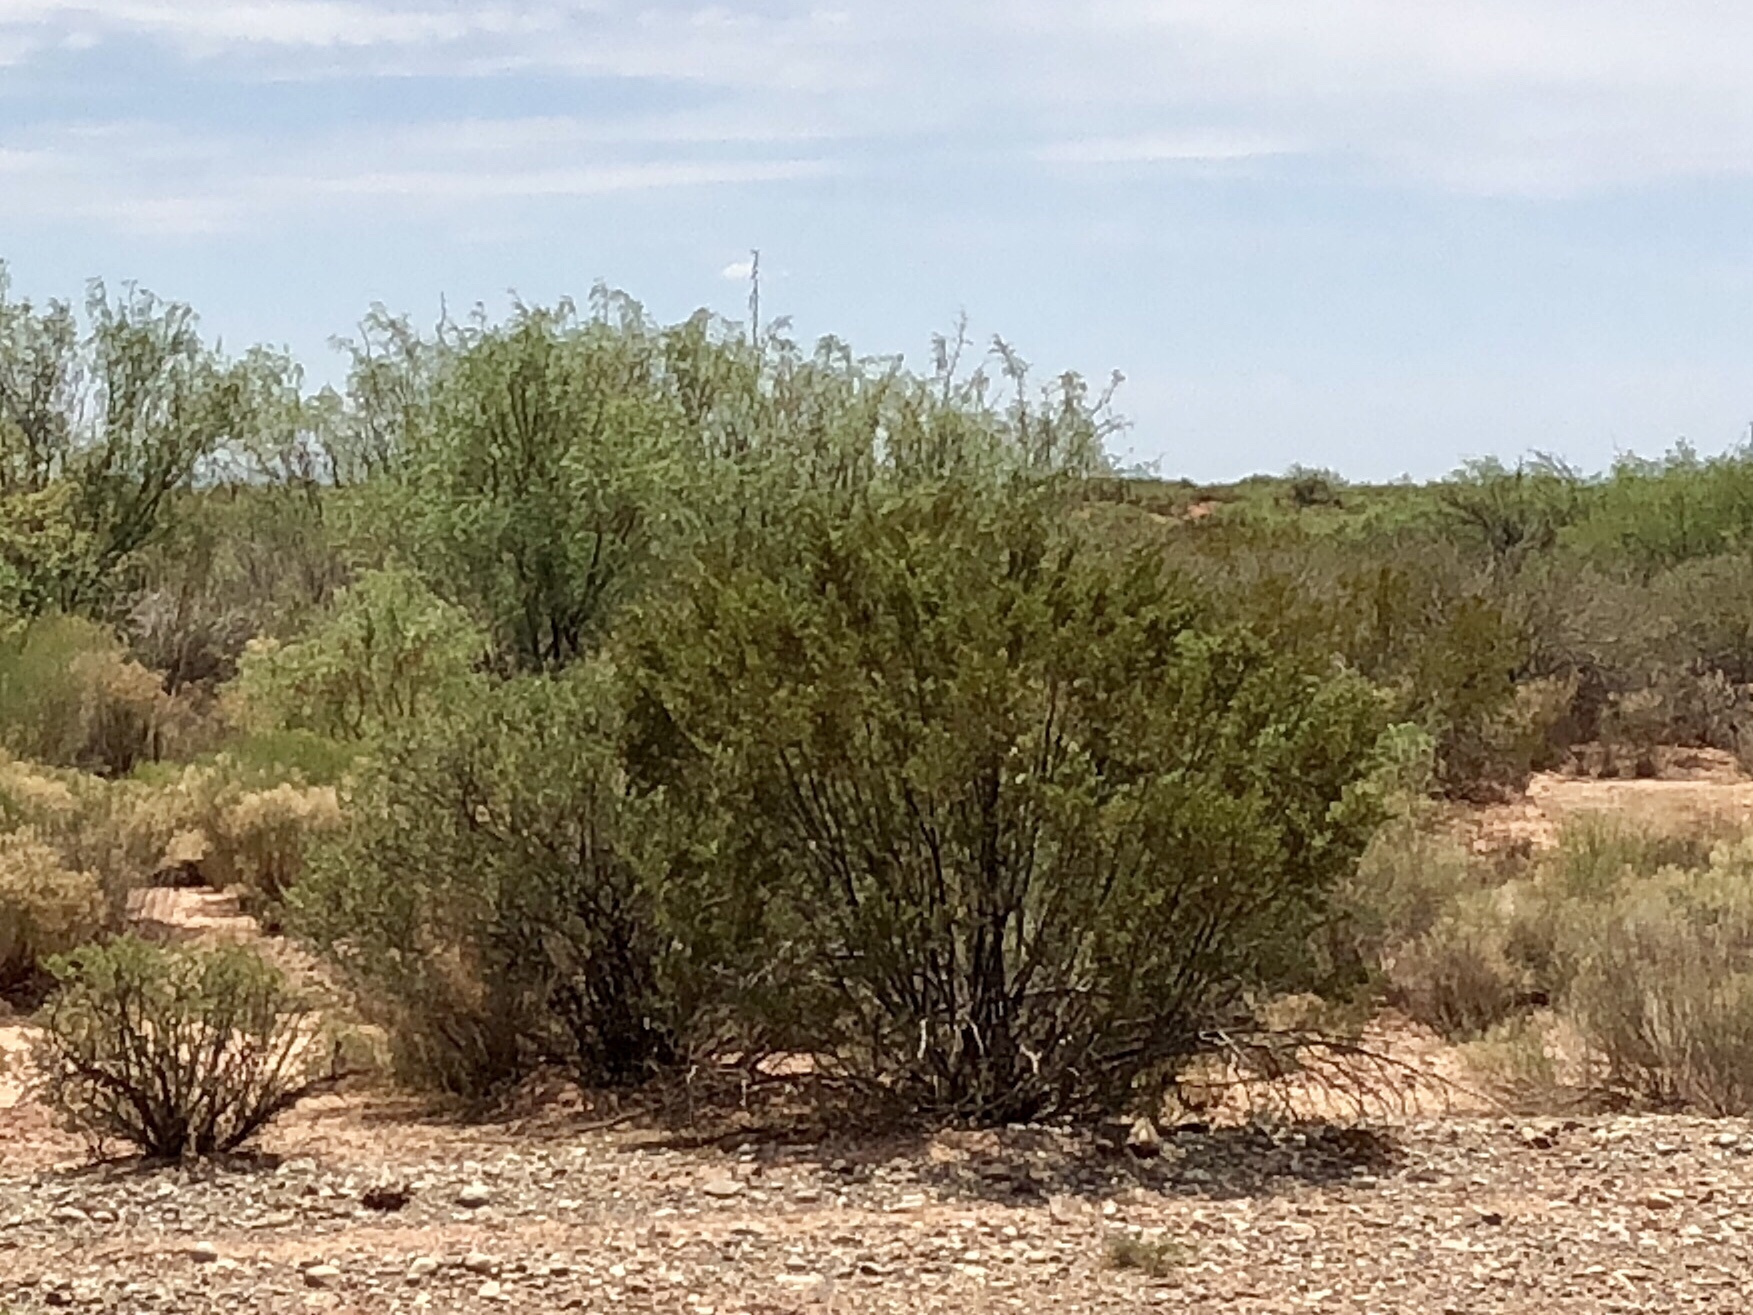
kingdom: Plantae
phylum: Tracheophyta
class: Magnoliopsida
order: Zygophyllales
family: Zygophyllaceae
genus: Larrea
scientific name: Larrea tridentata
